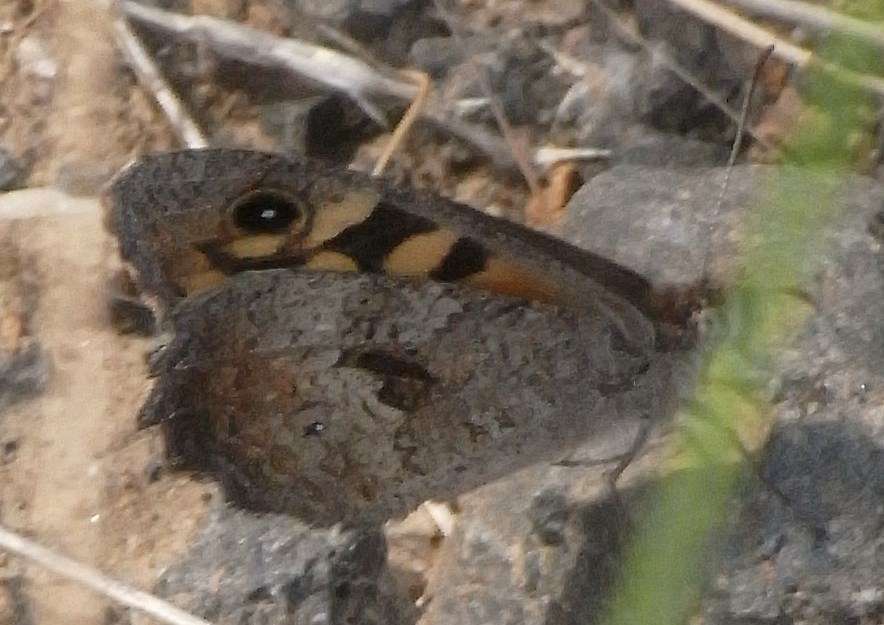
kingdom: Animalia
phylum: Arthropoda
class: Insecta
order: Lepidoptera
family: Nymphalidae
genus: Geitoneura
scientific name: Geitoneura klugii
